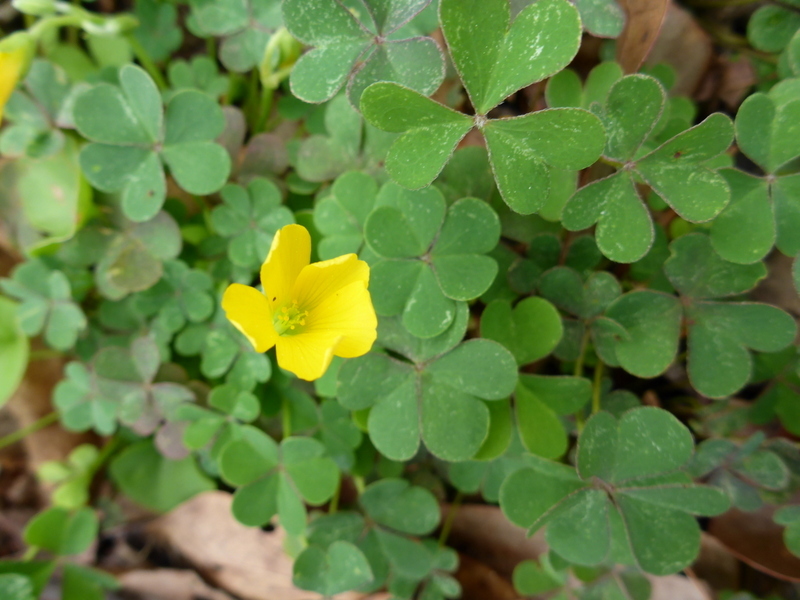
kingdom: Plantae
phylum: Tracheophyta
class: Magnoliopsida
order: Oxalidales
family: Oxalidaceae
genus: Oxalis
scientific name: Oxalis corniculata
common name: Procumbent yellow-sorrel
